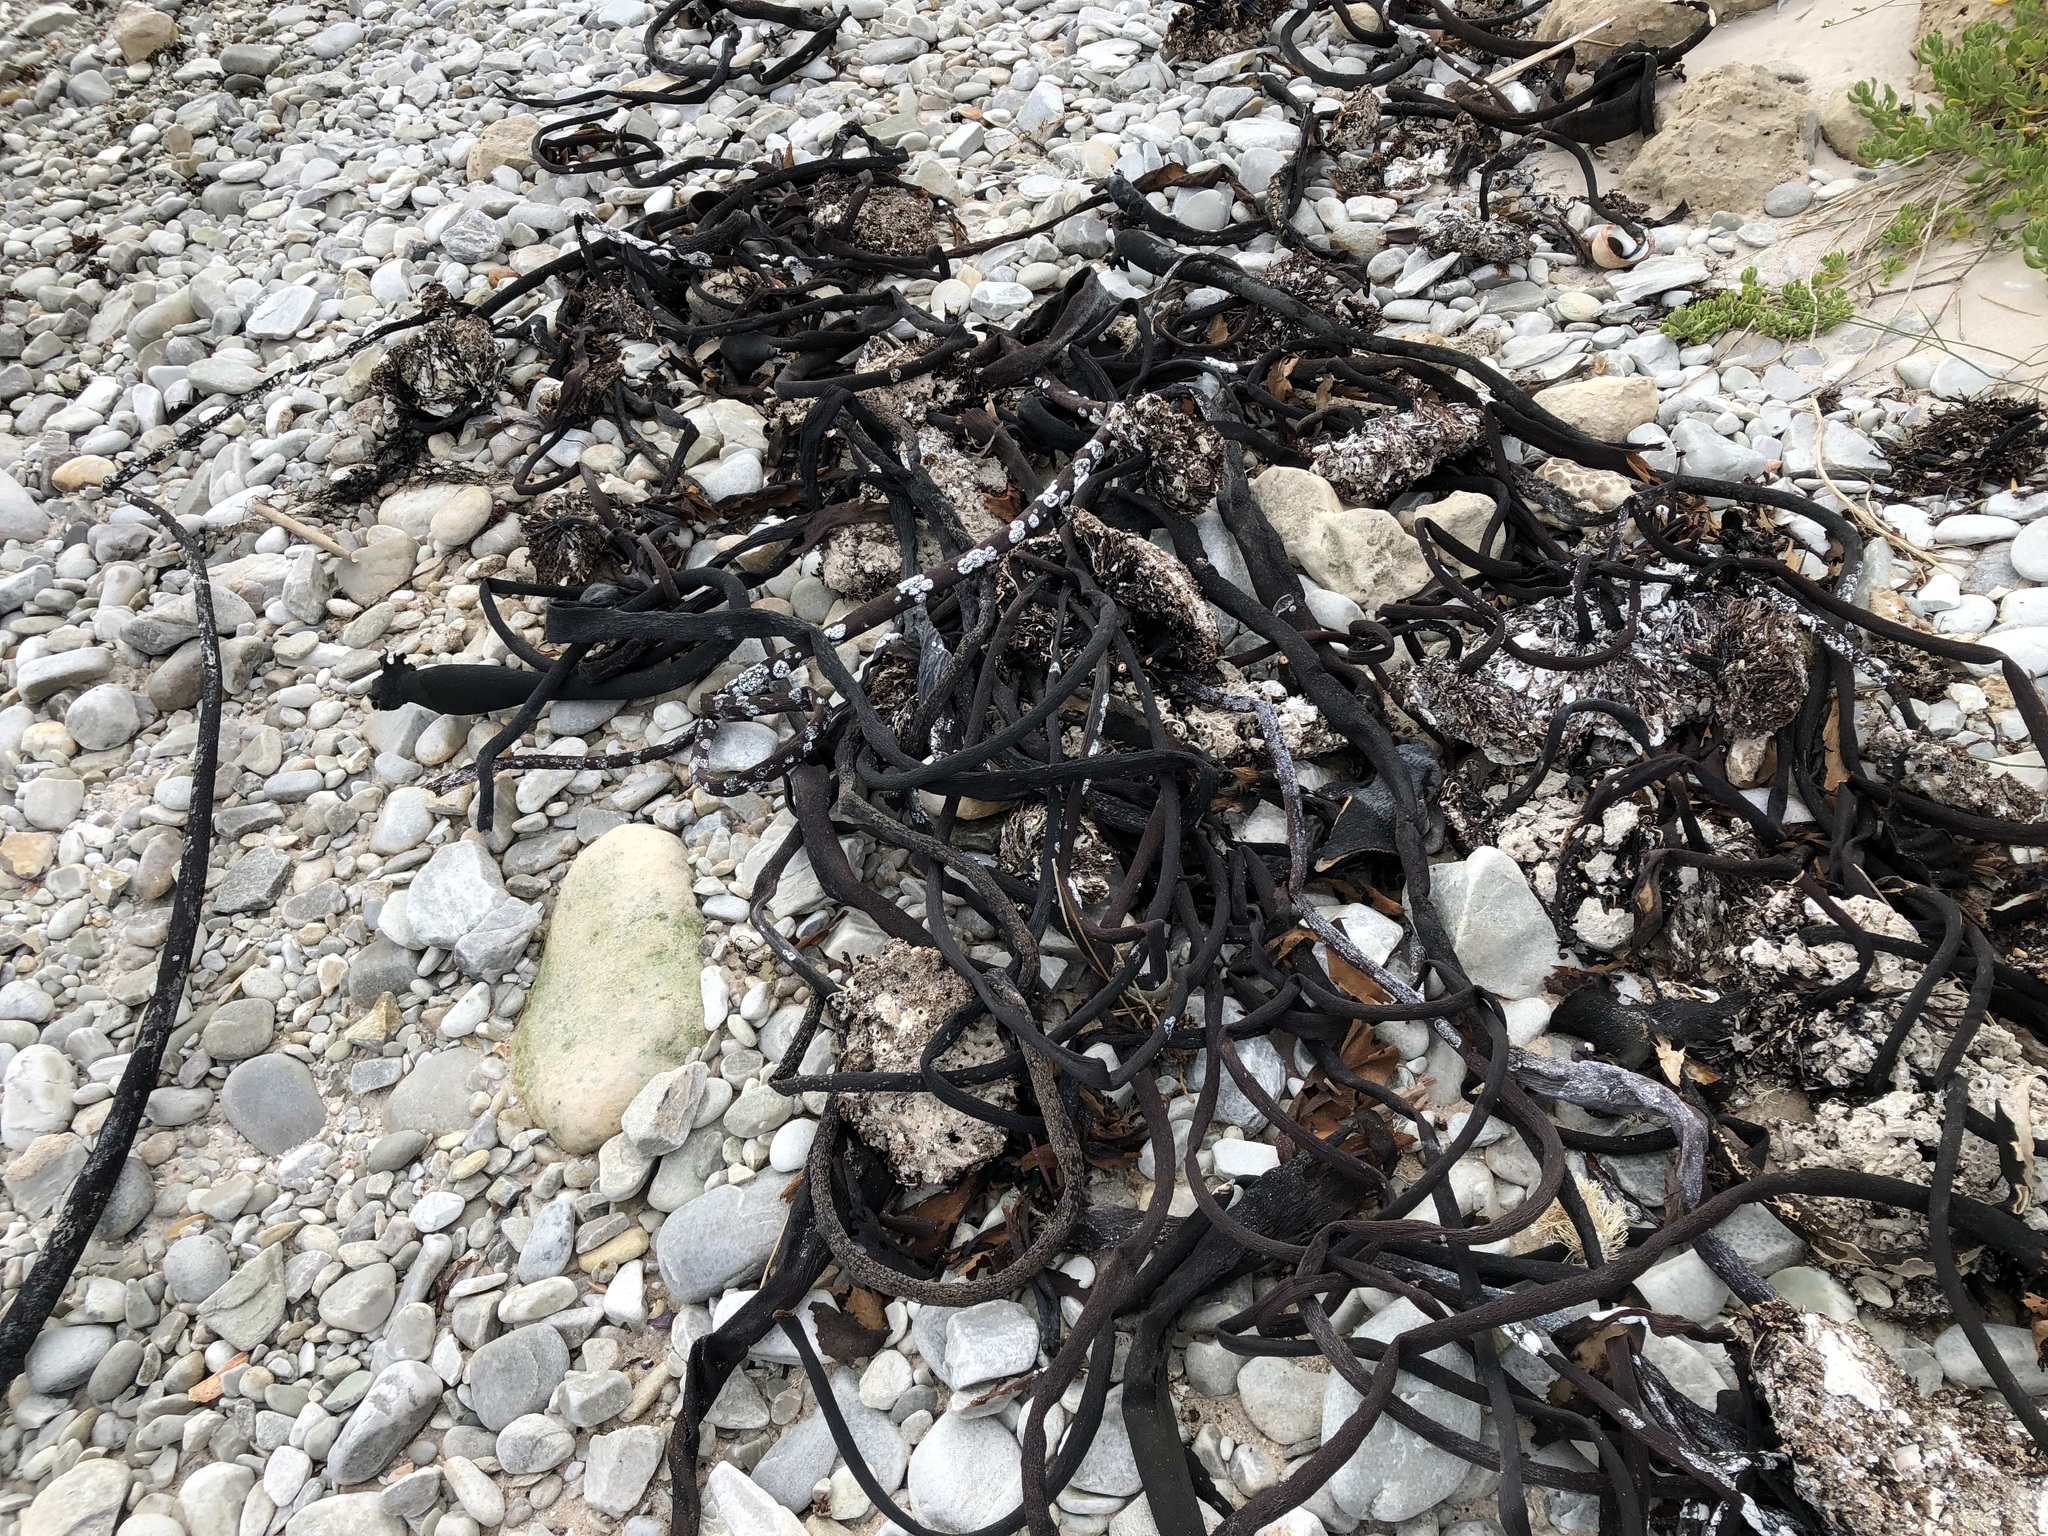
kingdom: Chromista
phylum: Ochrophyta
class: Phaeophyceae
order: Laminariales
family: Lessoniaceae
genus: Ecklonia
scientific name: Ecklonia
